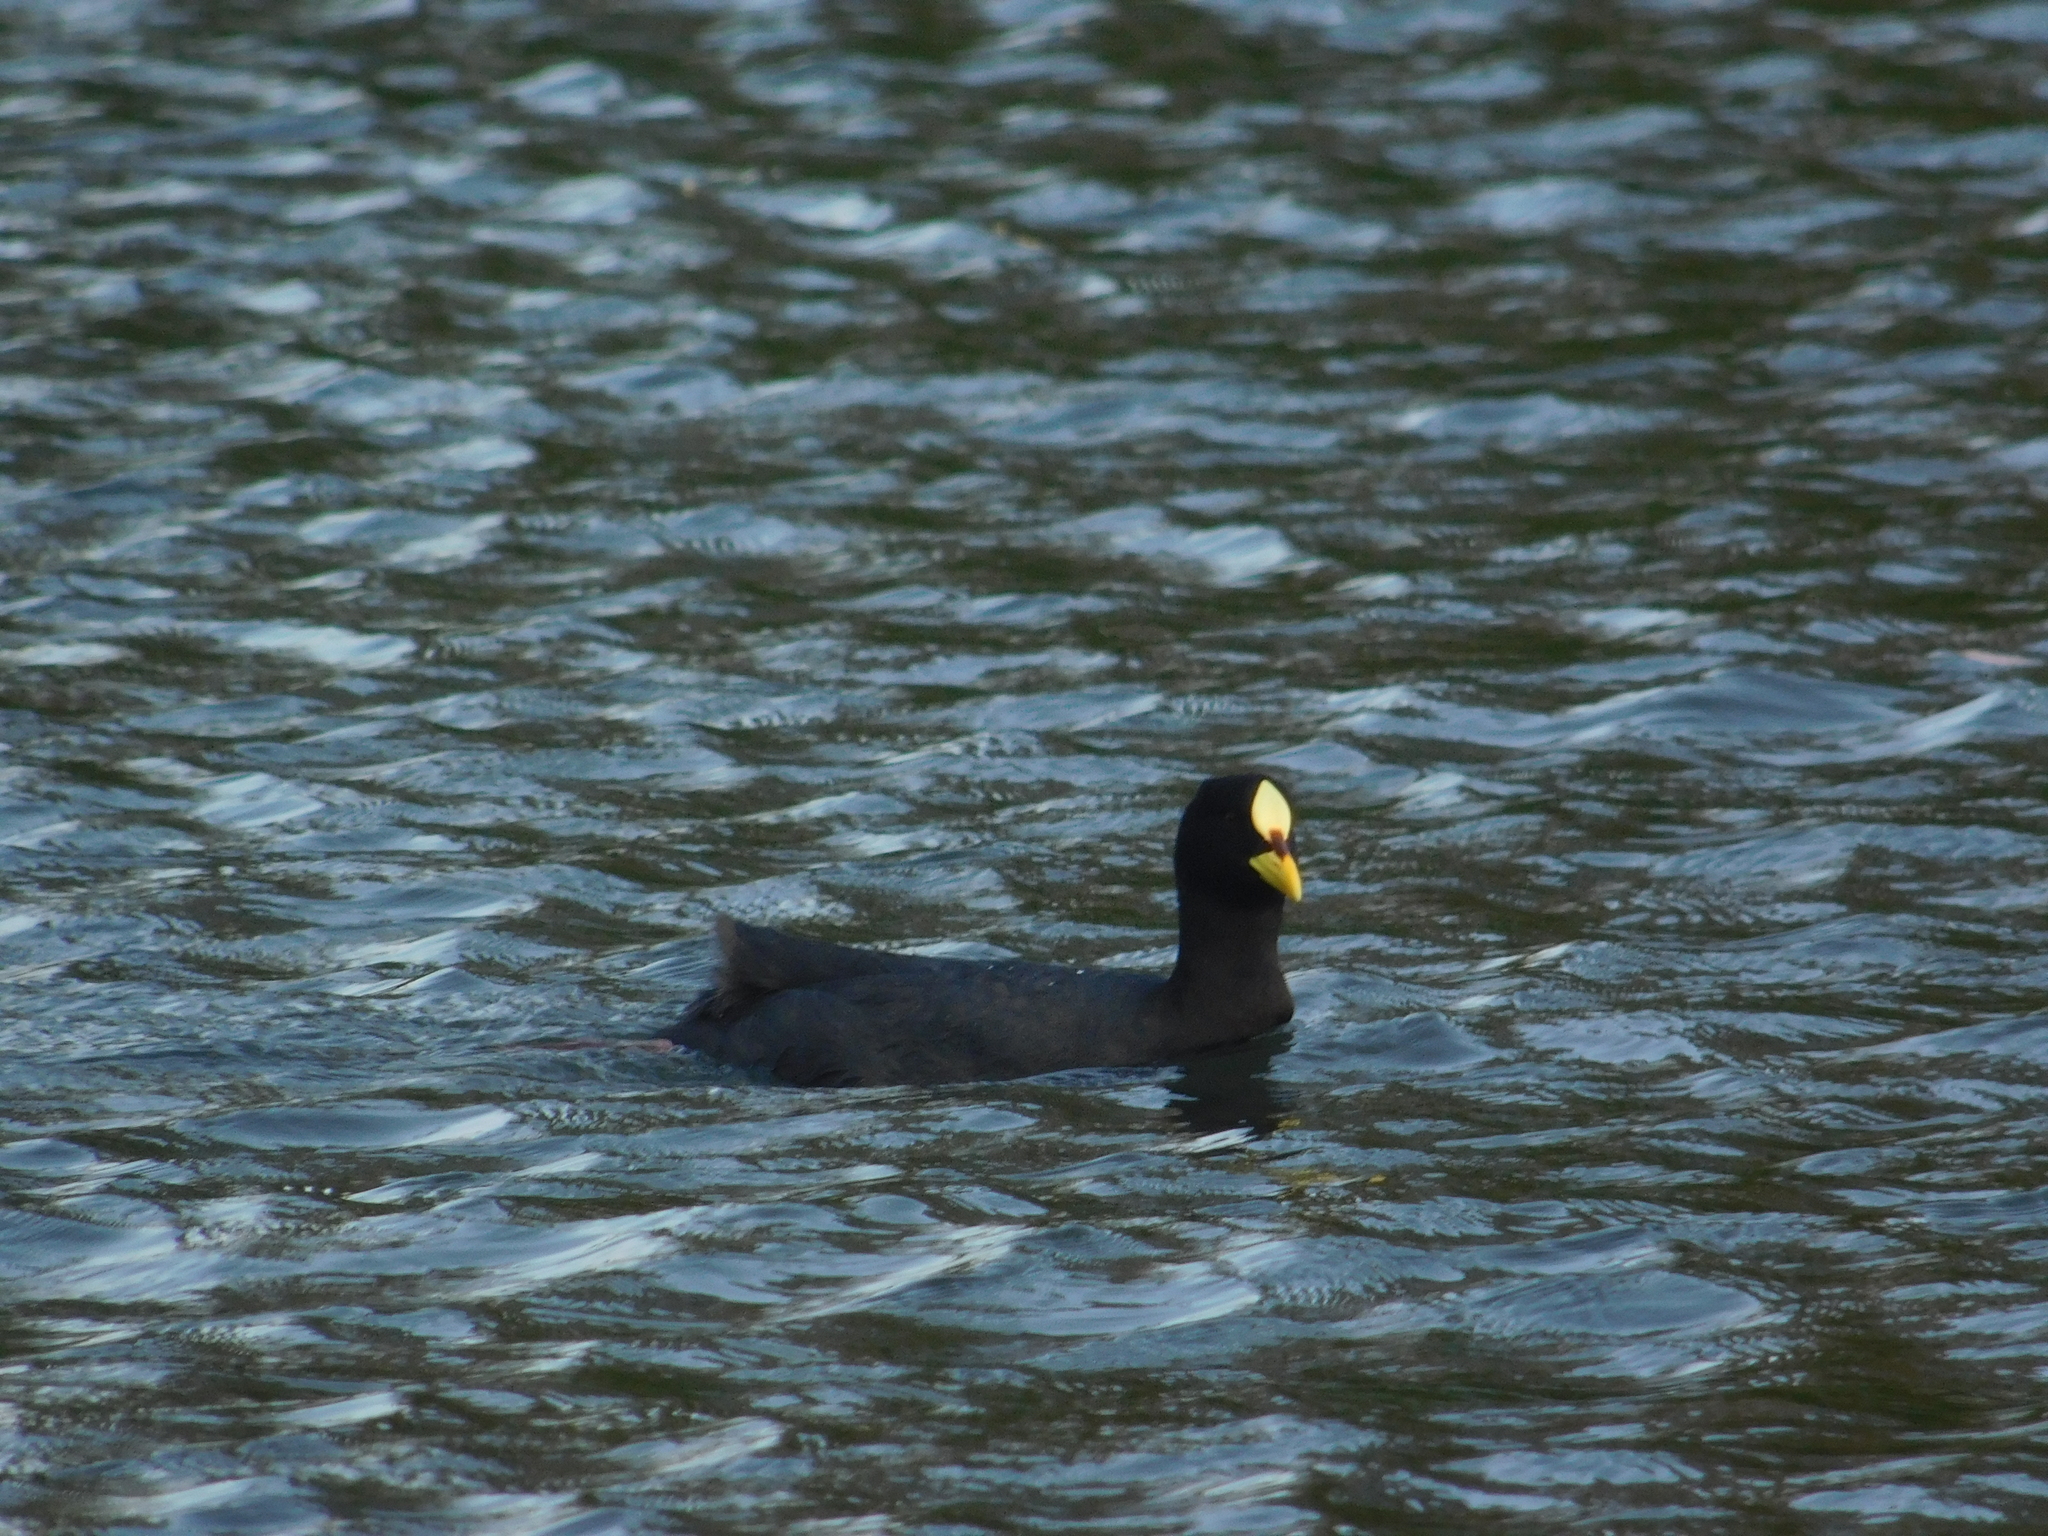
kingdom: Animalia
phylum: Chordata
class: Aves
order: Gruiformes
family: Rallidae
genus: Fulica
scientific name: Fulica armillata
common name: Red-gartered coot
